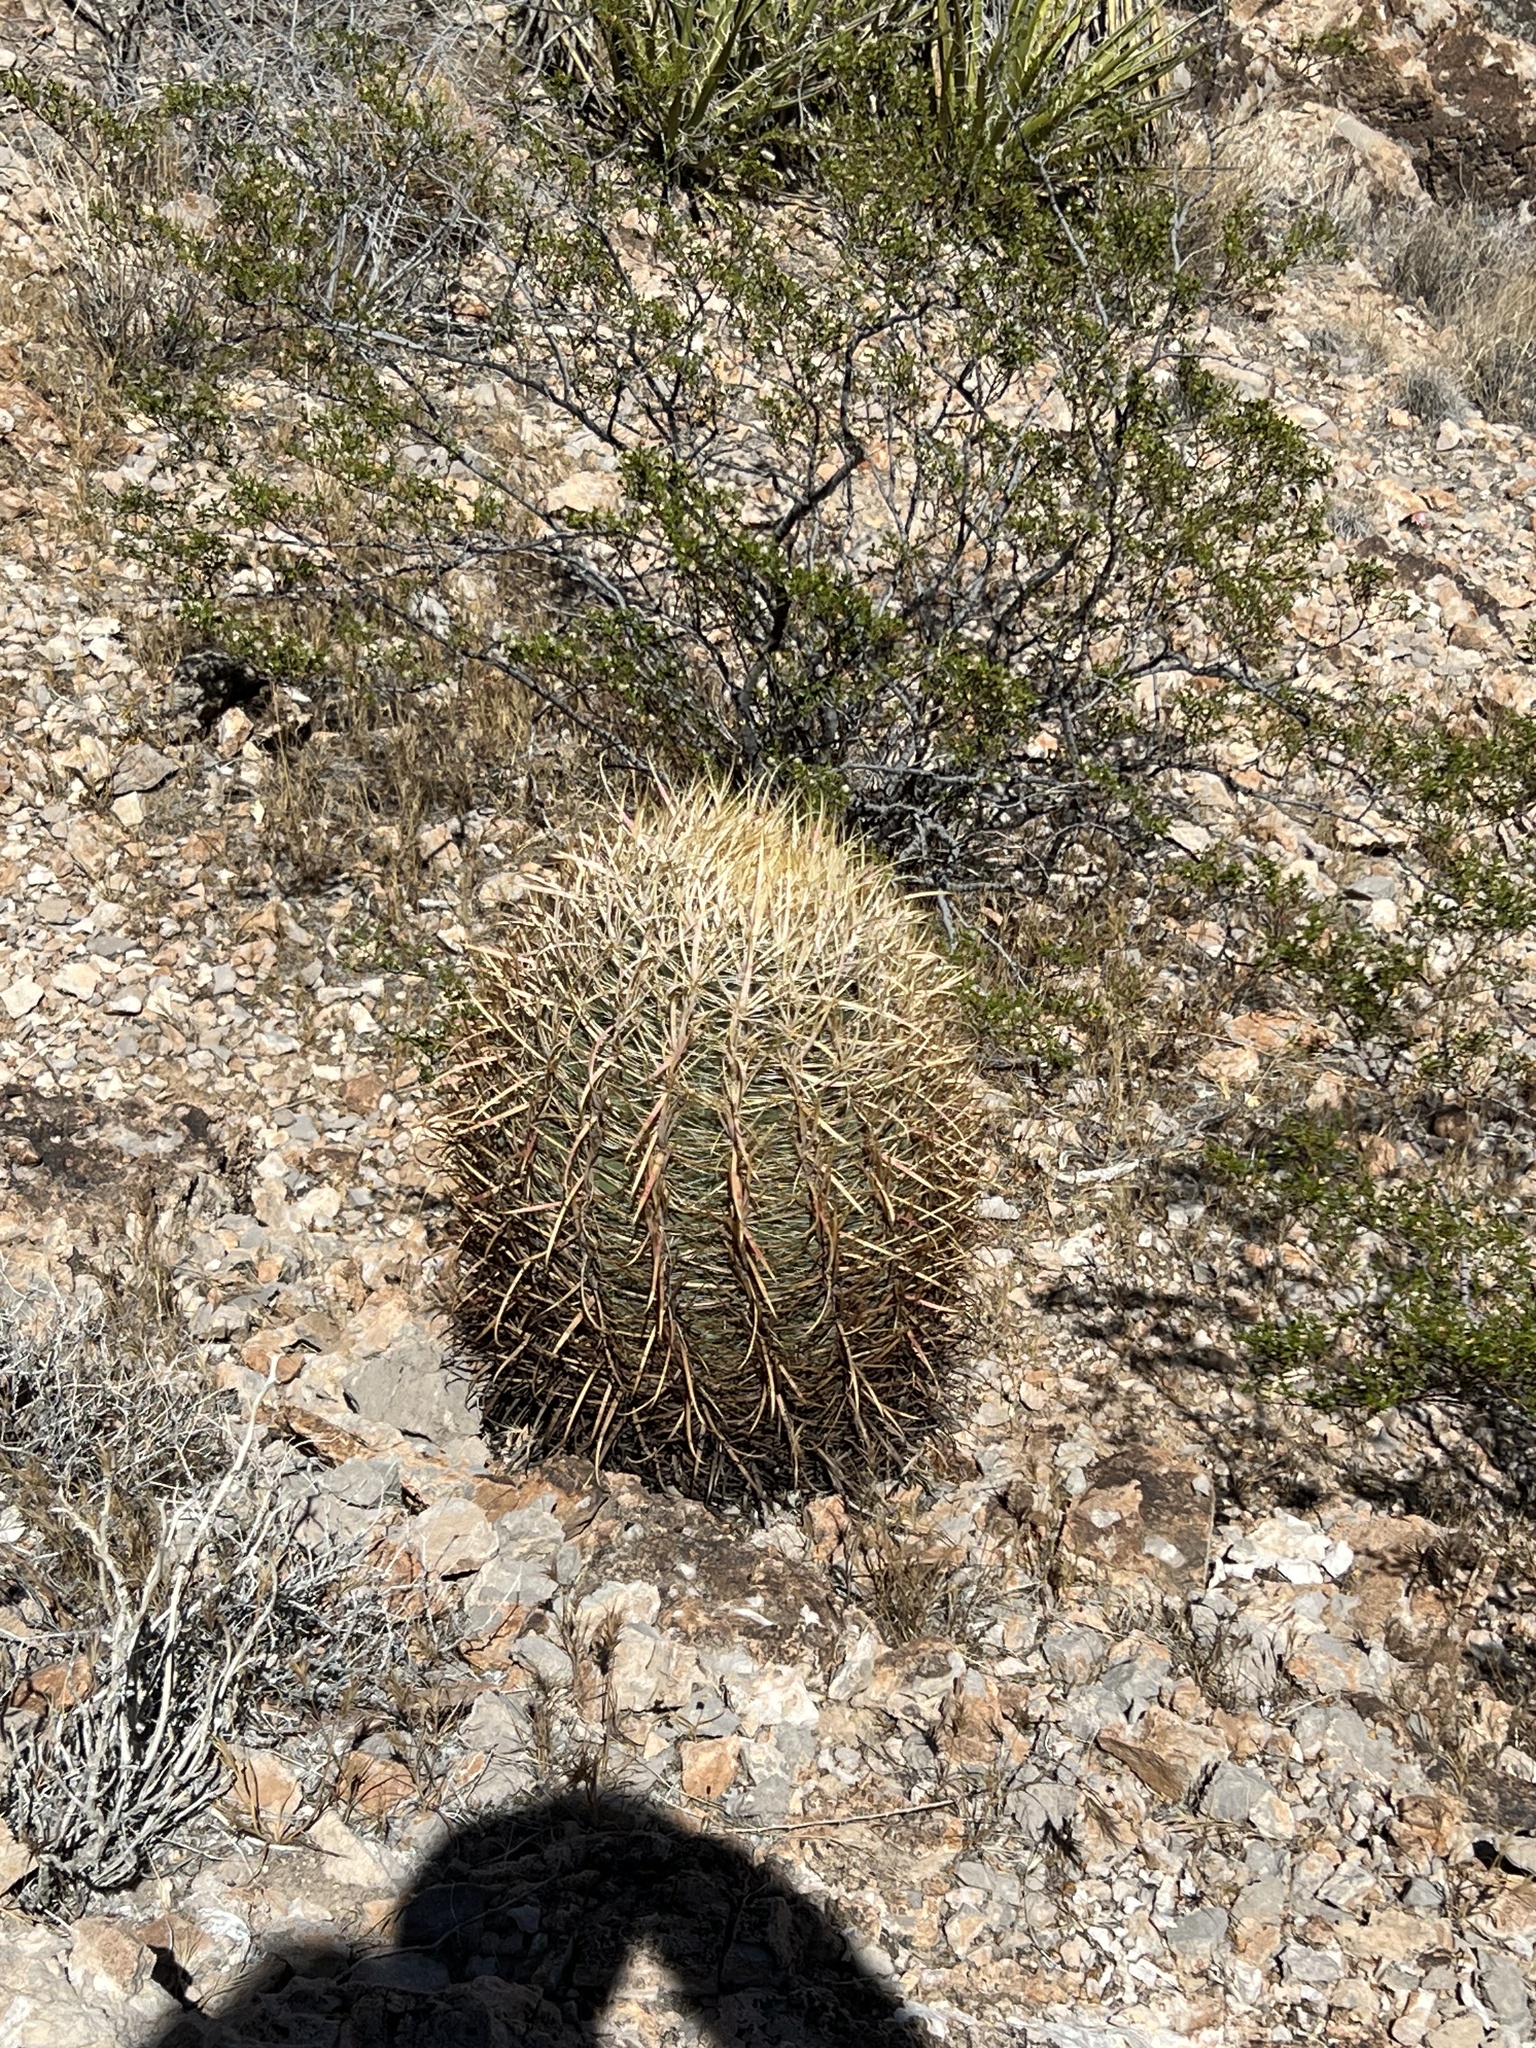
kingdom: Plantae
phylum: Tracheophyta
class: Magnoliopsida
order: Caryophyllales
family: Cactaceae
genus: Ferocactus
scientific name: Ferocactus cylindraceus
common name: California barrel cactus
